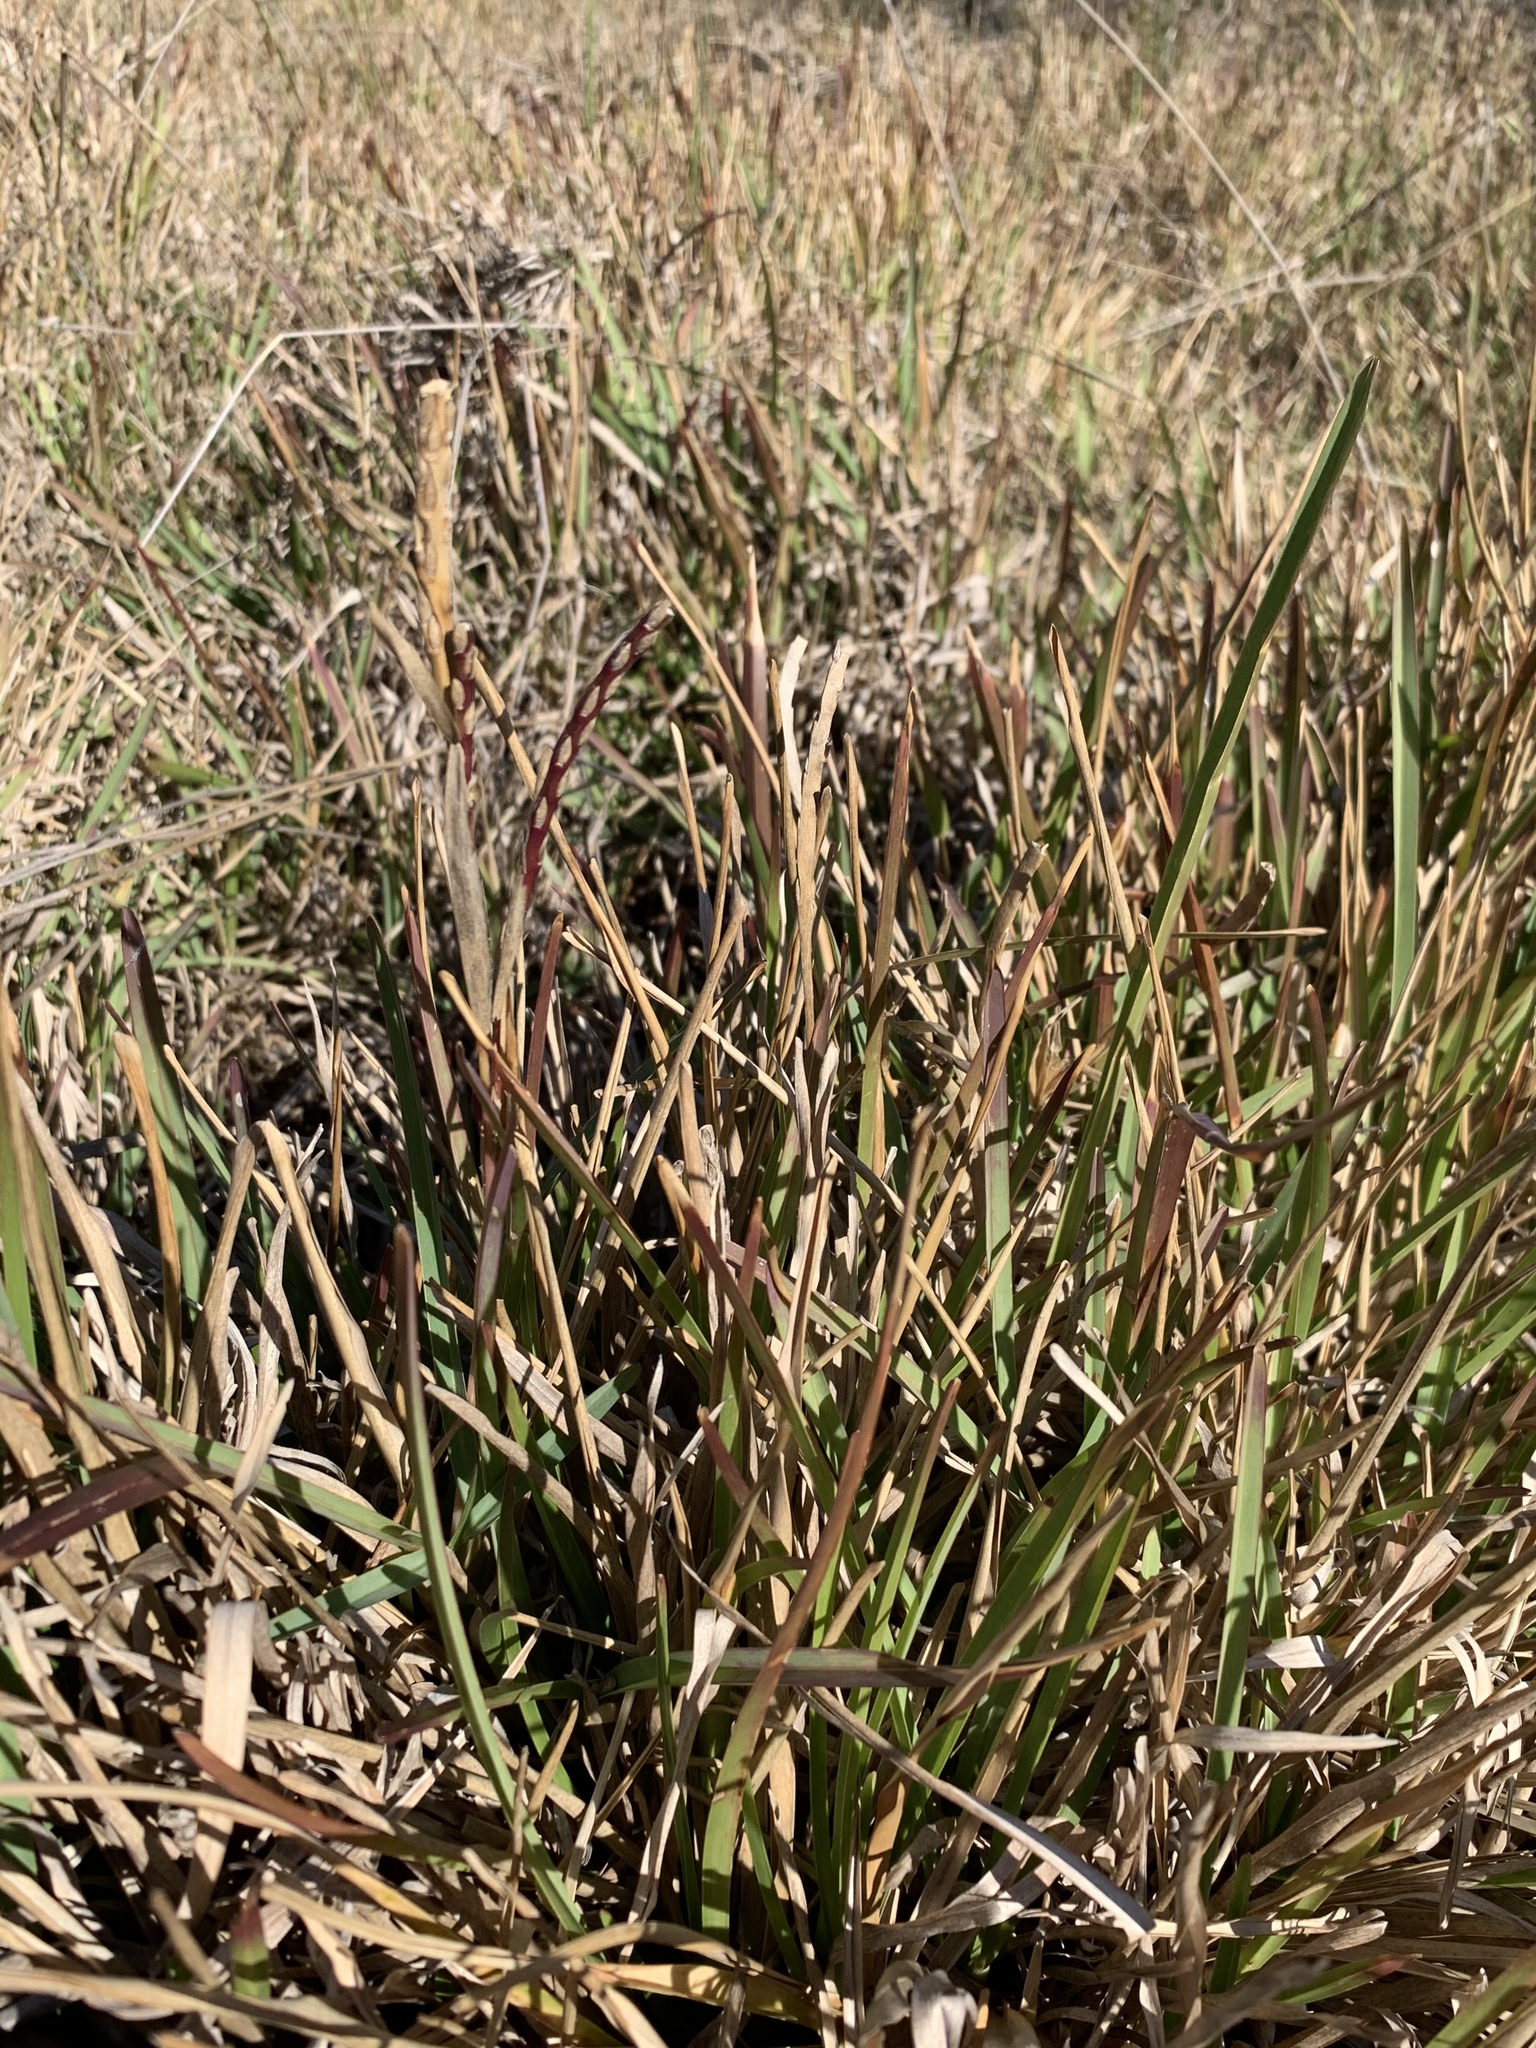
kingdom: Plantae
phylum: Tracheophyta
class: Liliopsida
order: Poales
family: Poaceae
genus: Stenotaphrum
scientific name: Stenotaphrum secundatum
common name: St. augustine grass
